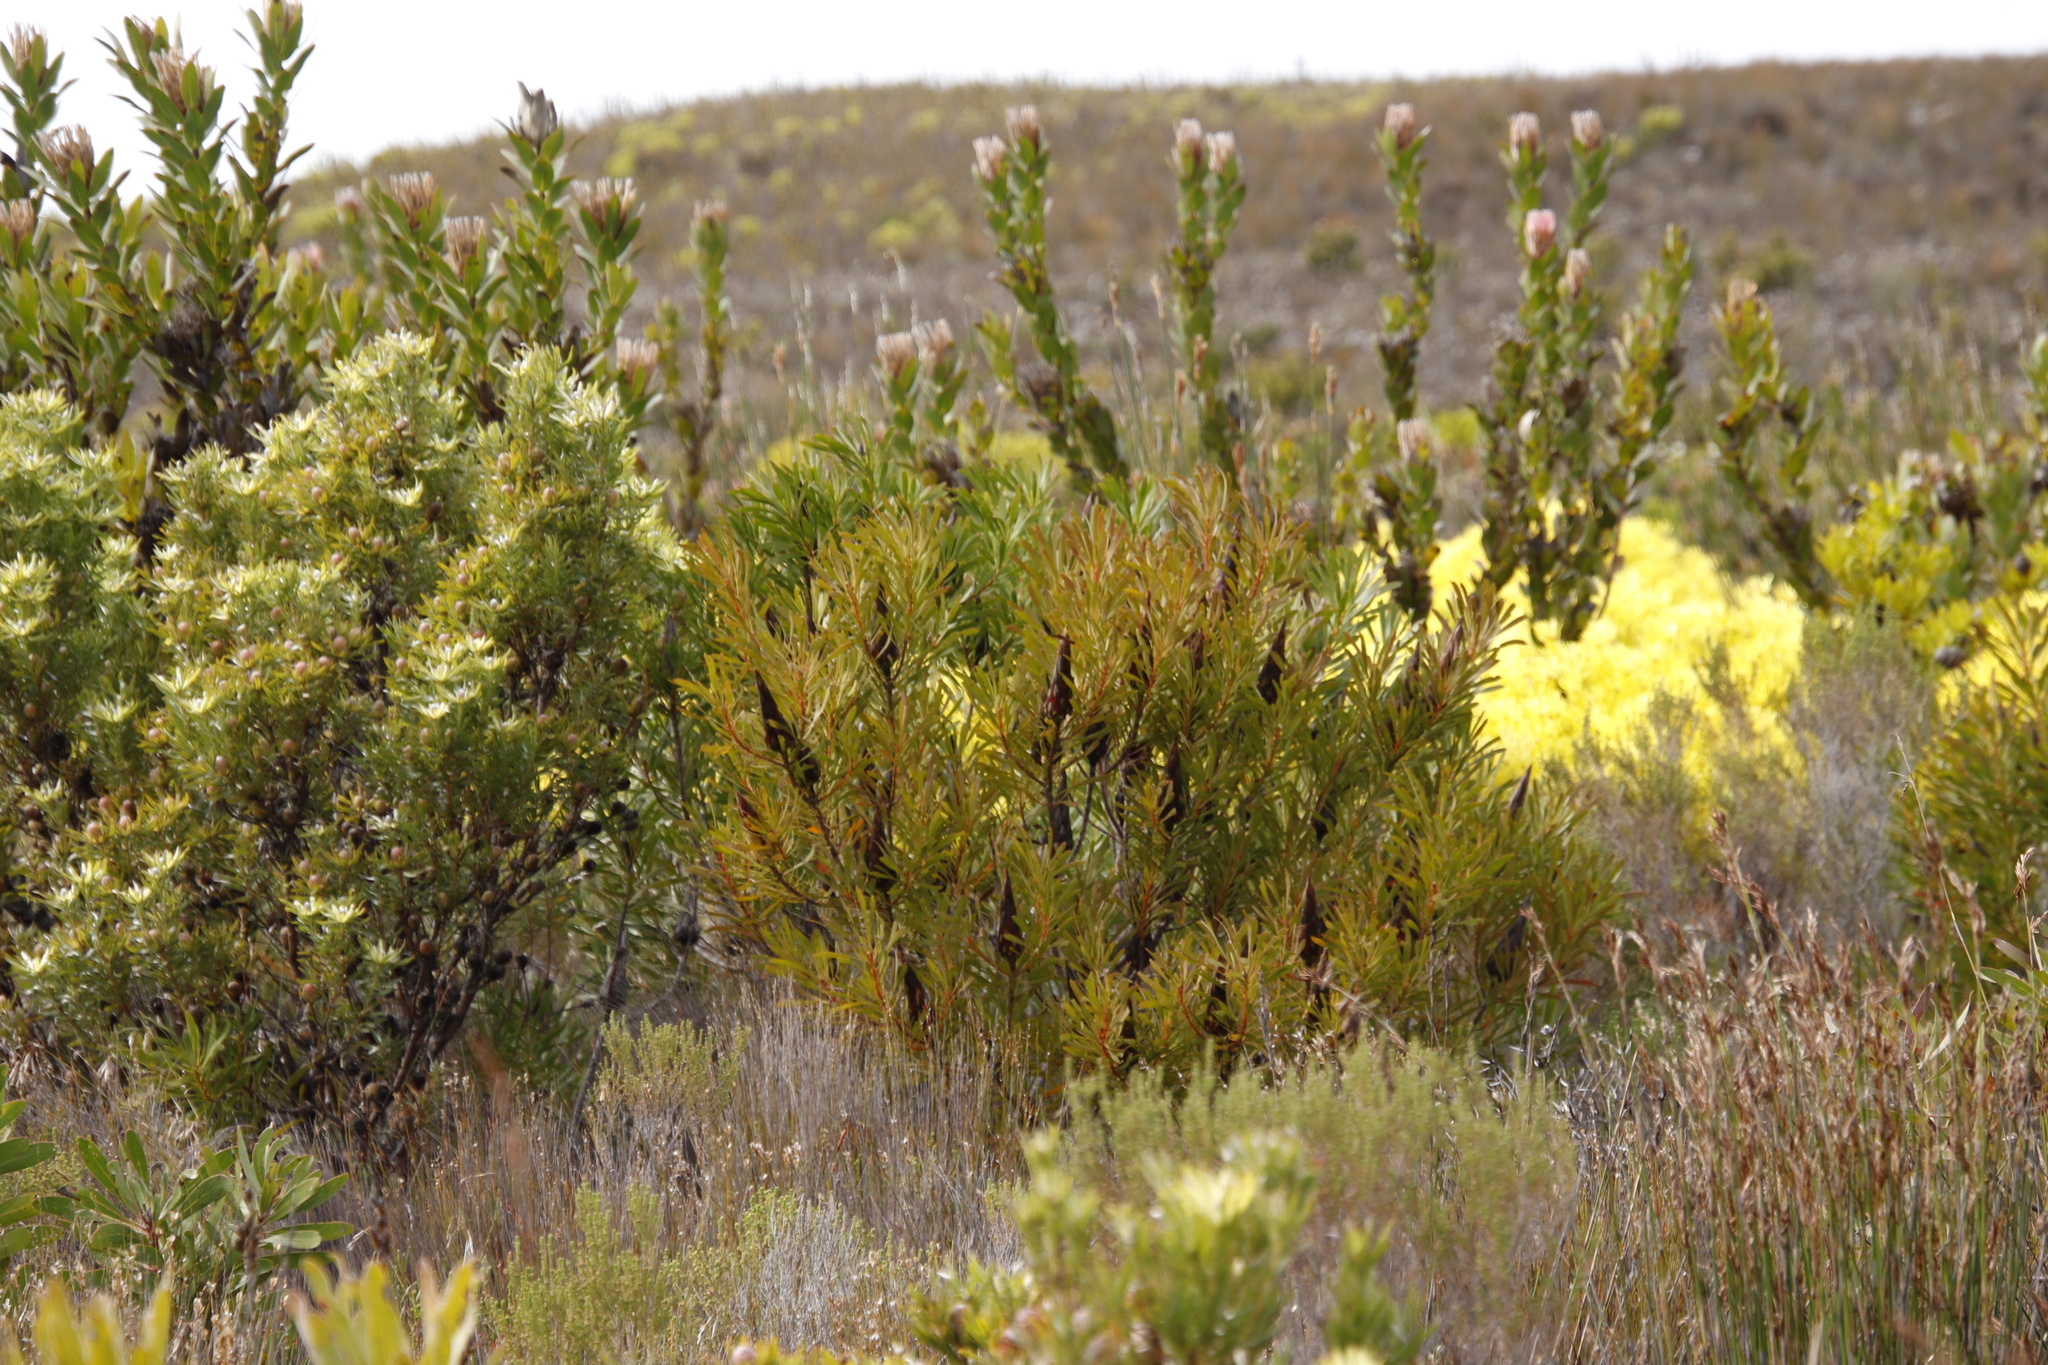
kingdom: Plantae
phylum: Tracheophyta
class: Magnoliopsida
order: Proteales
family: Proteaceae
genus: Protea
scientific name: Protea repens
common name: Sugarbush
